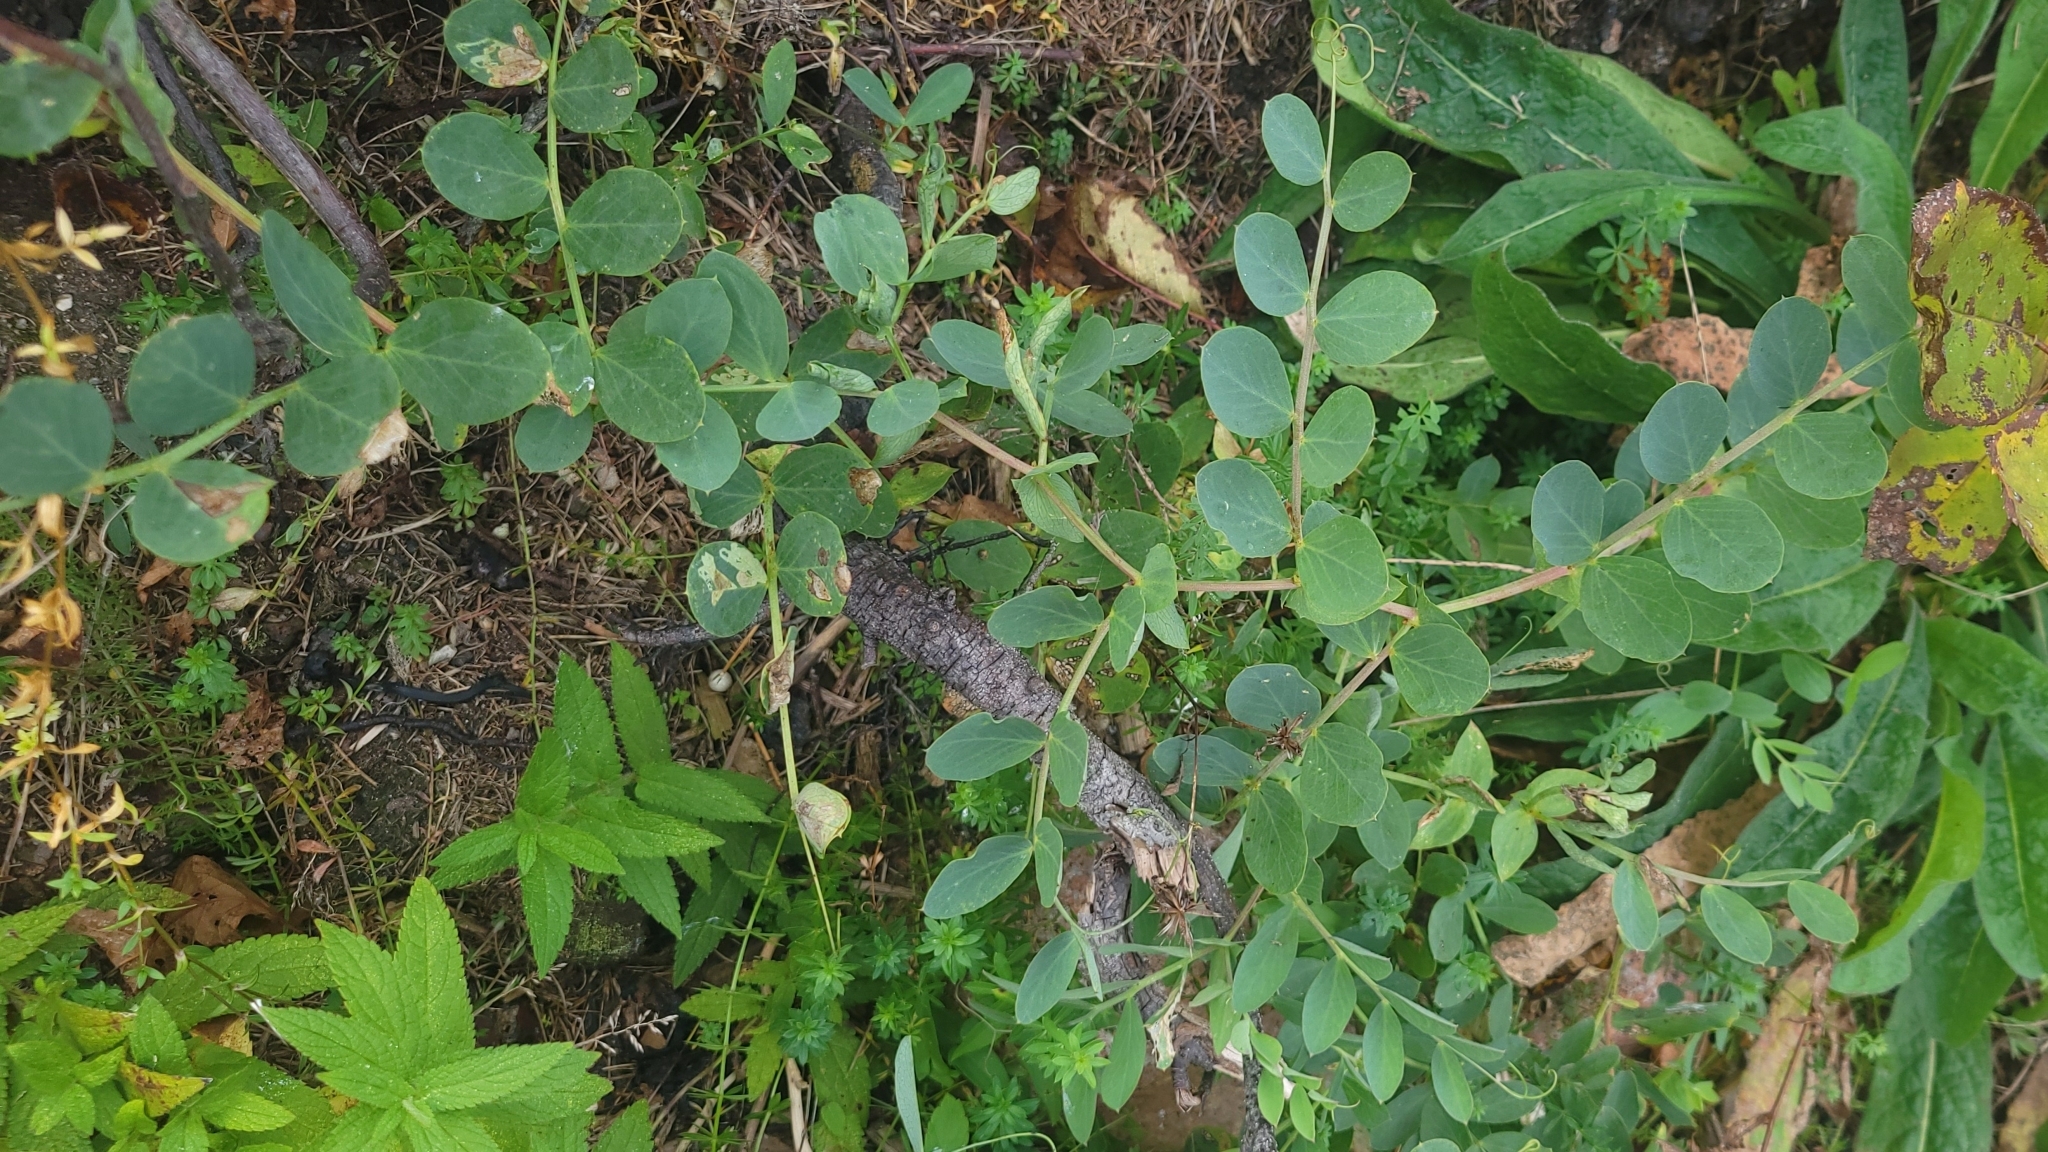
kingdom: Plantae
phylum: Tracheophyta
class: Magnoliopsida
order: Fabales
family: Fabaceae
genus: Lathyrus
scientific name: Lathyrus japonicus
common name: Sea pea
